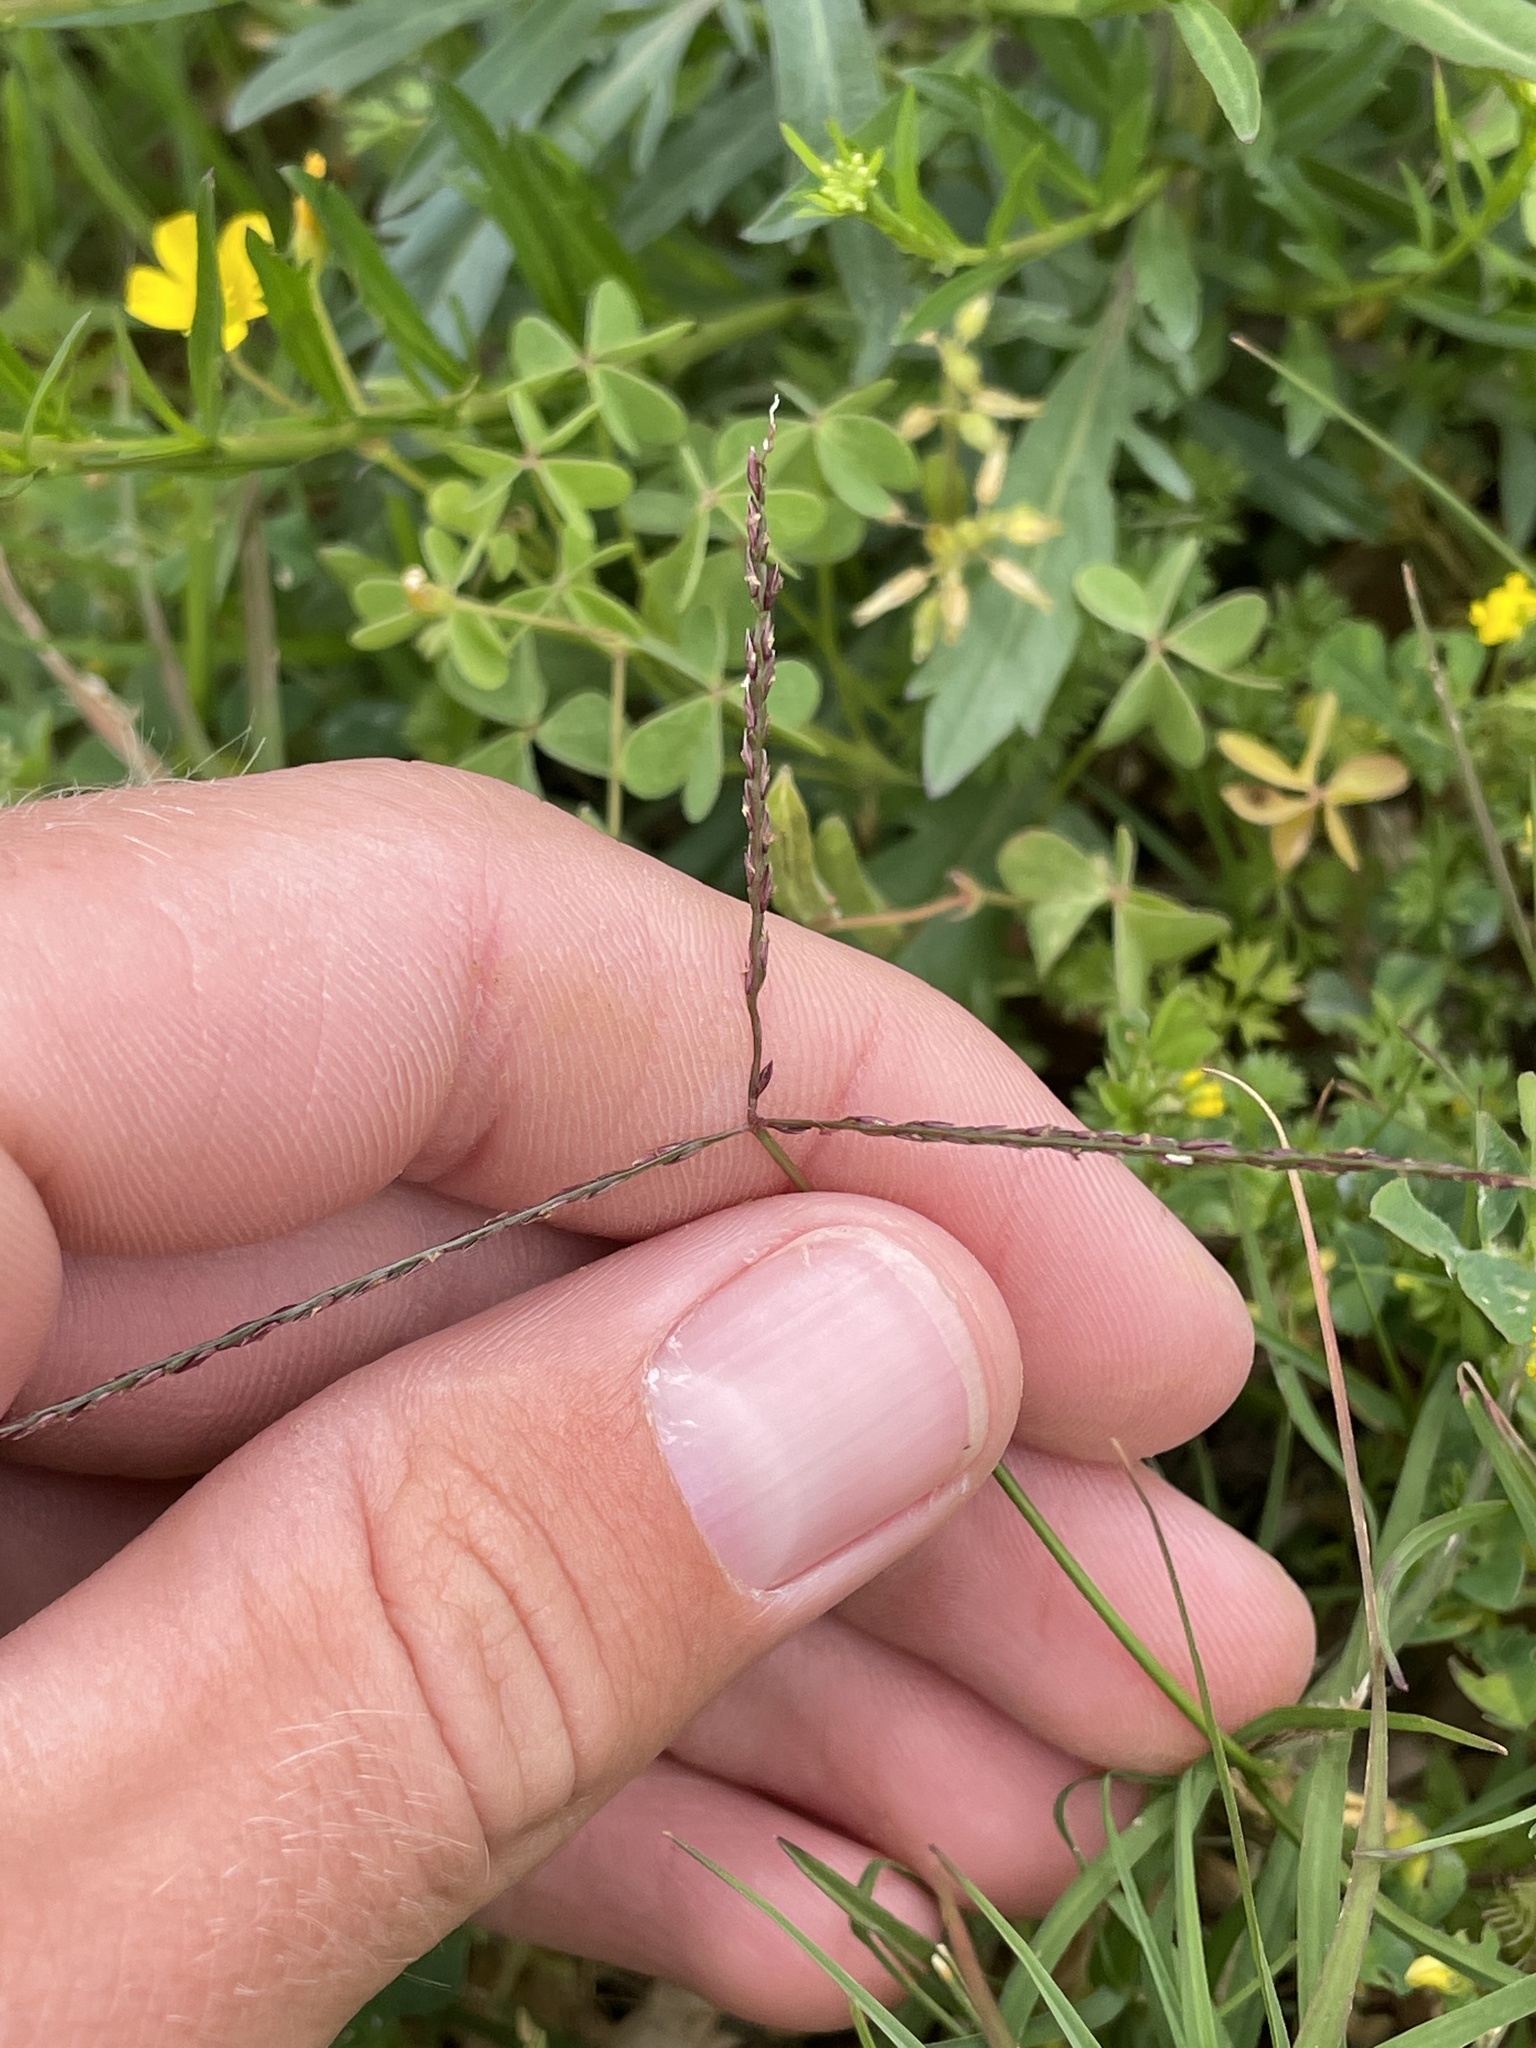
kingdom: Plantae
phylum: Tracheophyta
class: Liliopsida
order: Poales
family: Poaceae
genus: Cynodon
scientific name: Cynodon dactylon
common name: Bermuda grass
